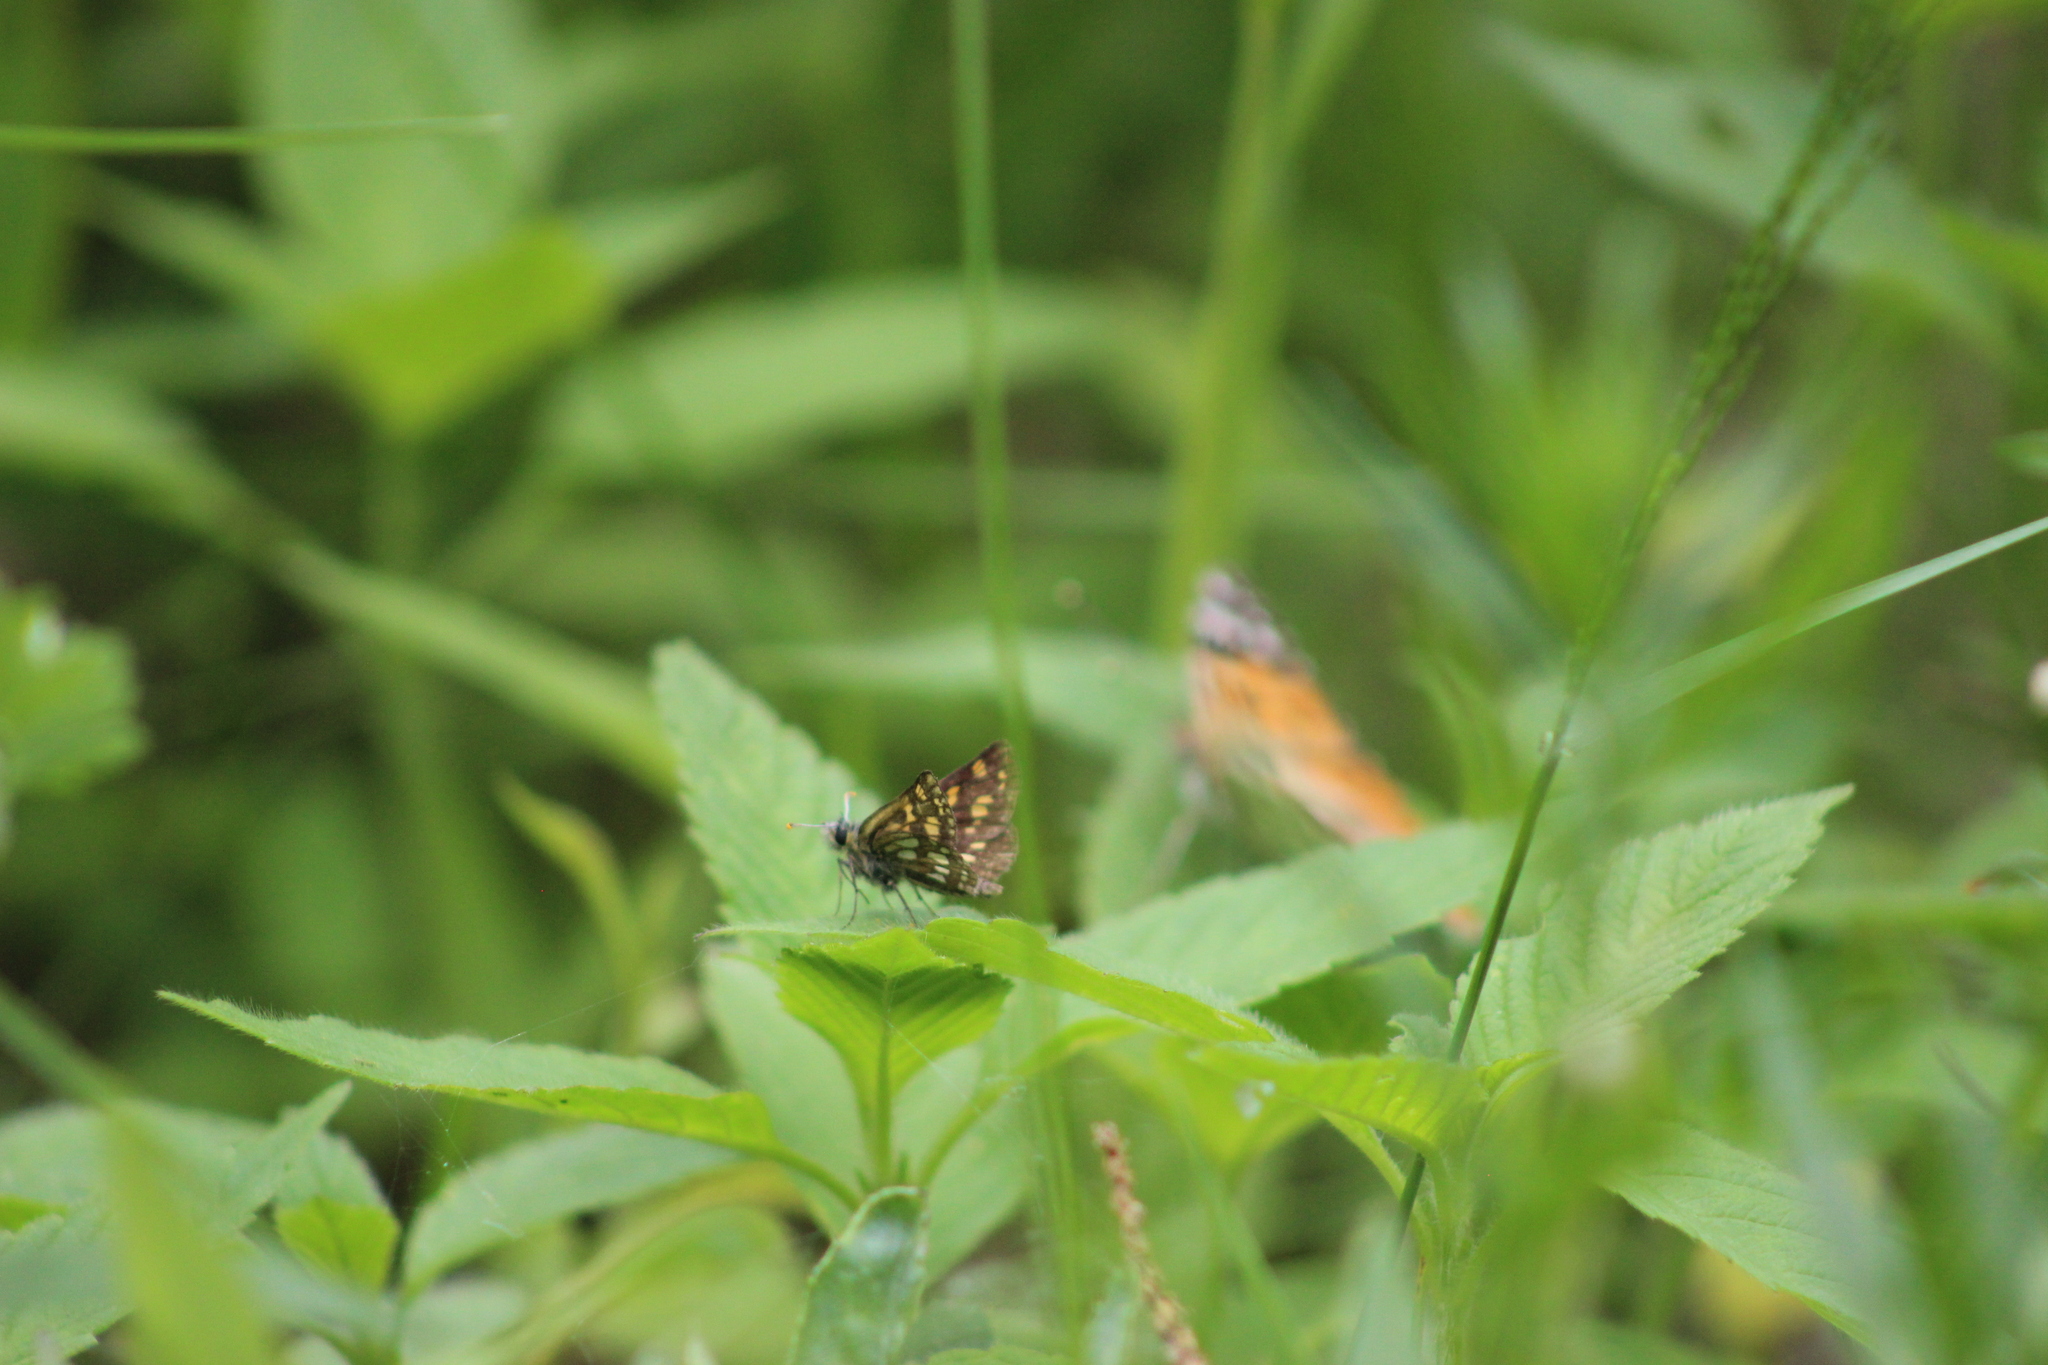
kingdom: Animalia
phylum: Arthropoda
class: Insecta
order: Lepidoptera
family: Hesperiidae
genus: Carterocephalus
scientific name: Carterocephalus palaemon
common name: Chequered skipper
